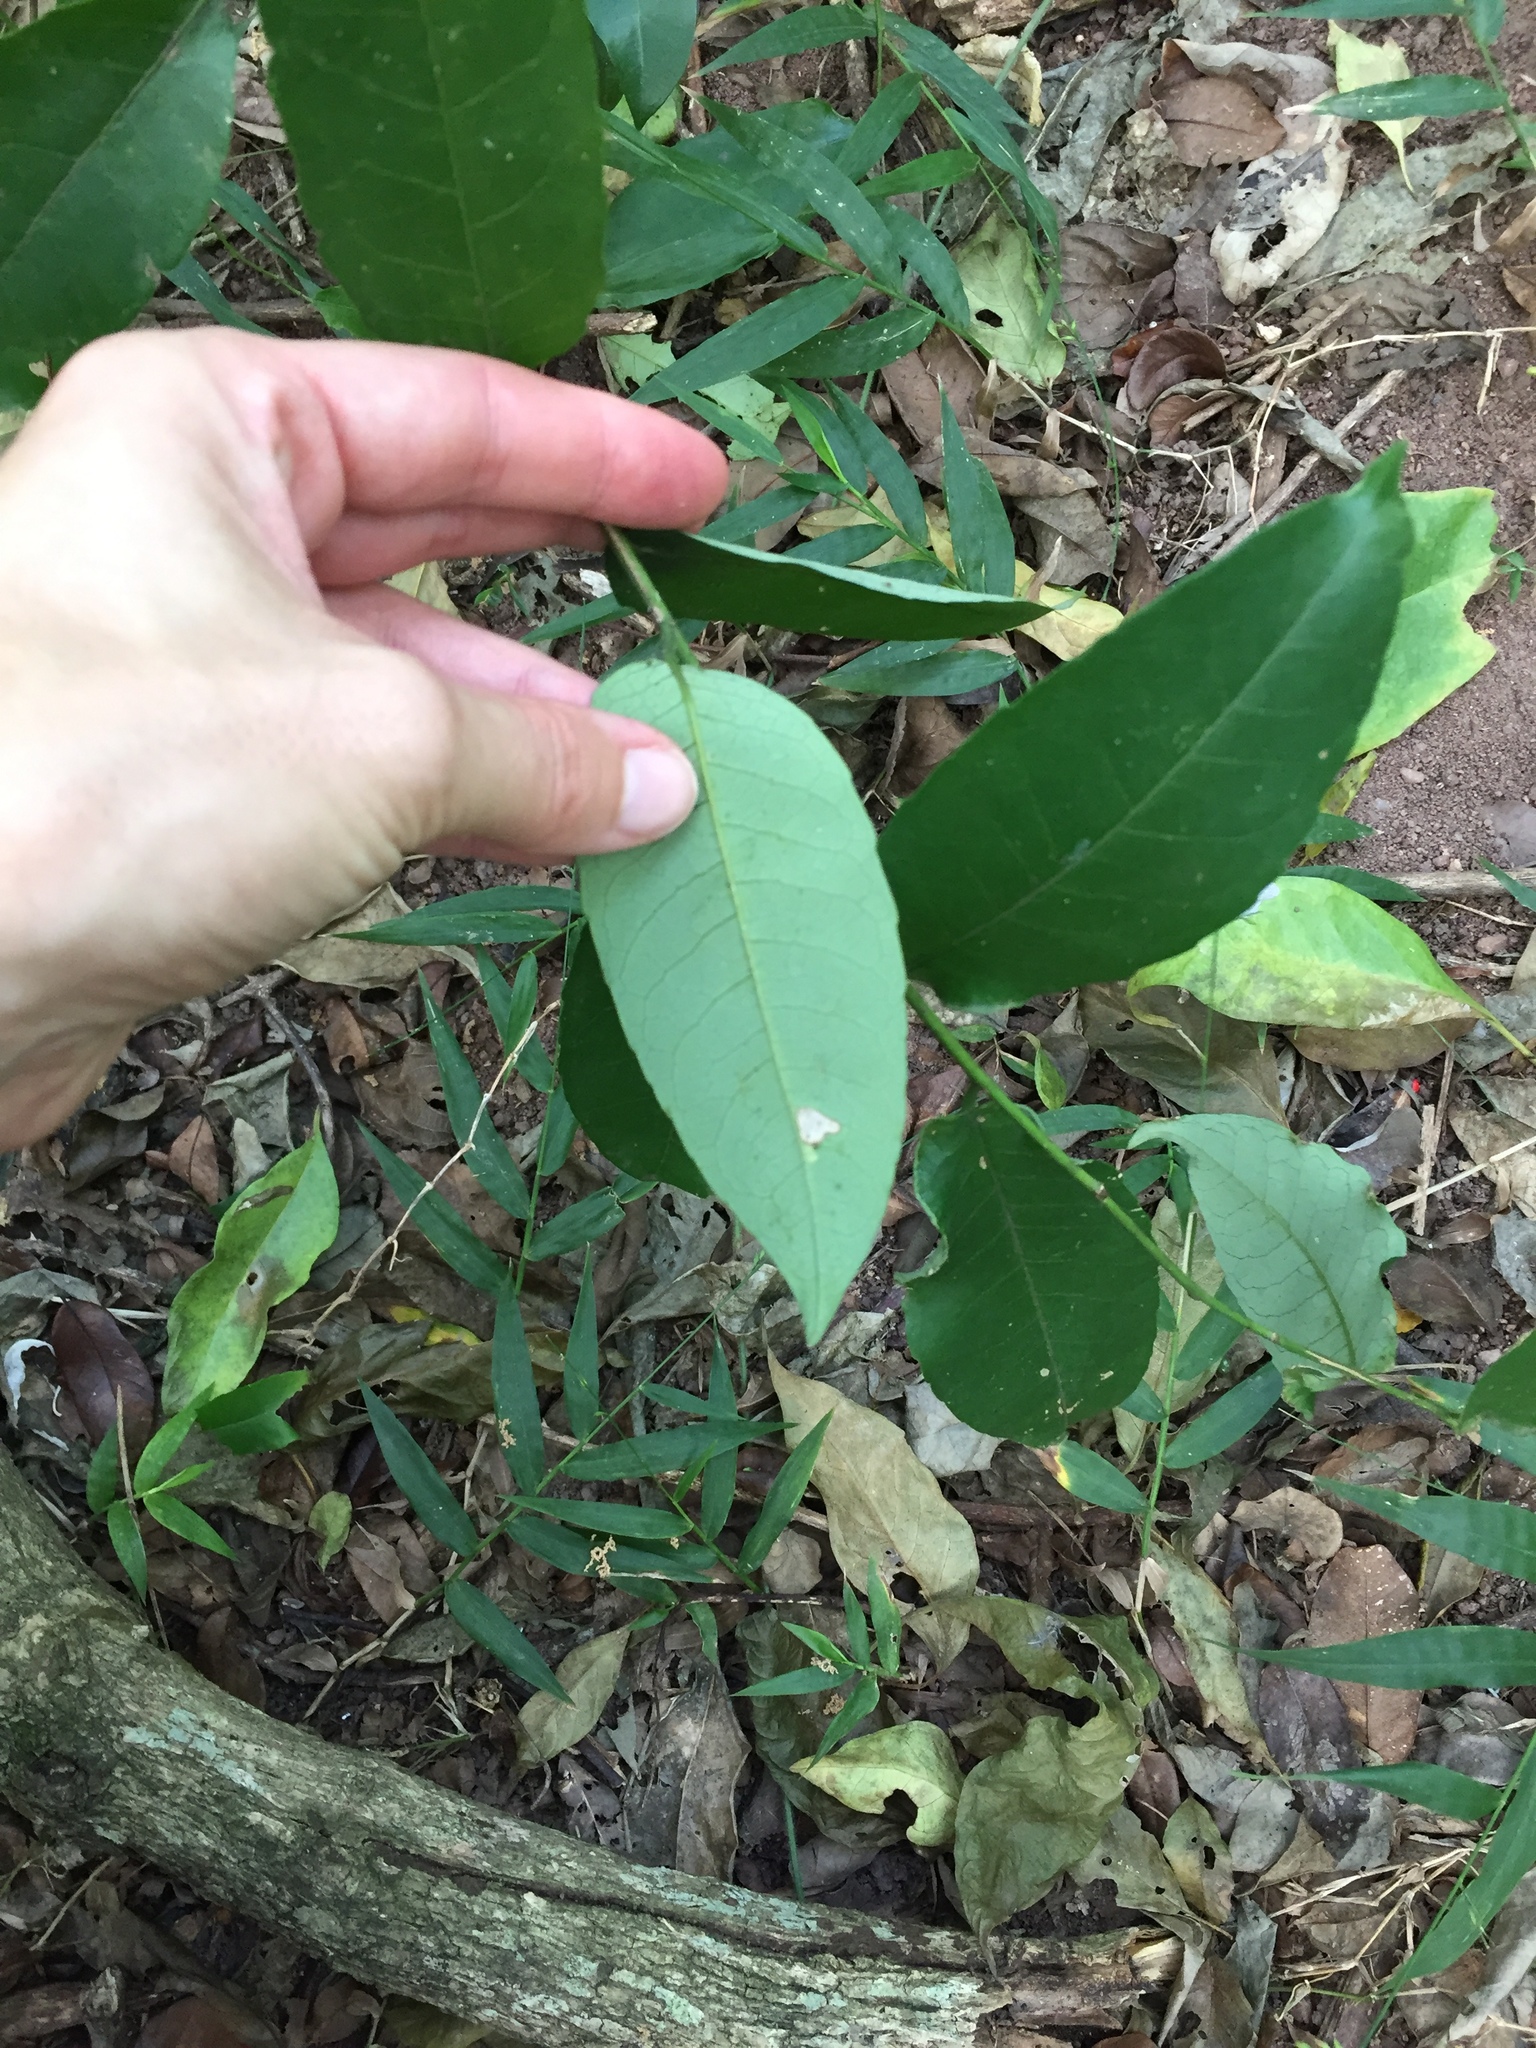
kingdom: Plantae
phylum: Tracheophyta
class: Magnoliopsida
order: Malpighiales
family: Euphorbiaceae
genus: Sclerocroton
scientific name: Sclerocroton integerrimus
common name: Duiker berry
